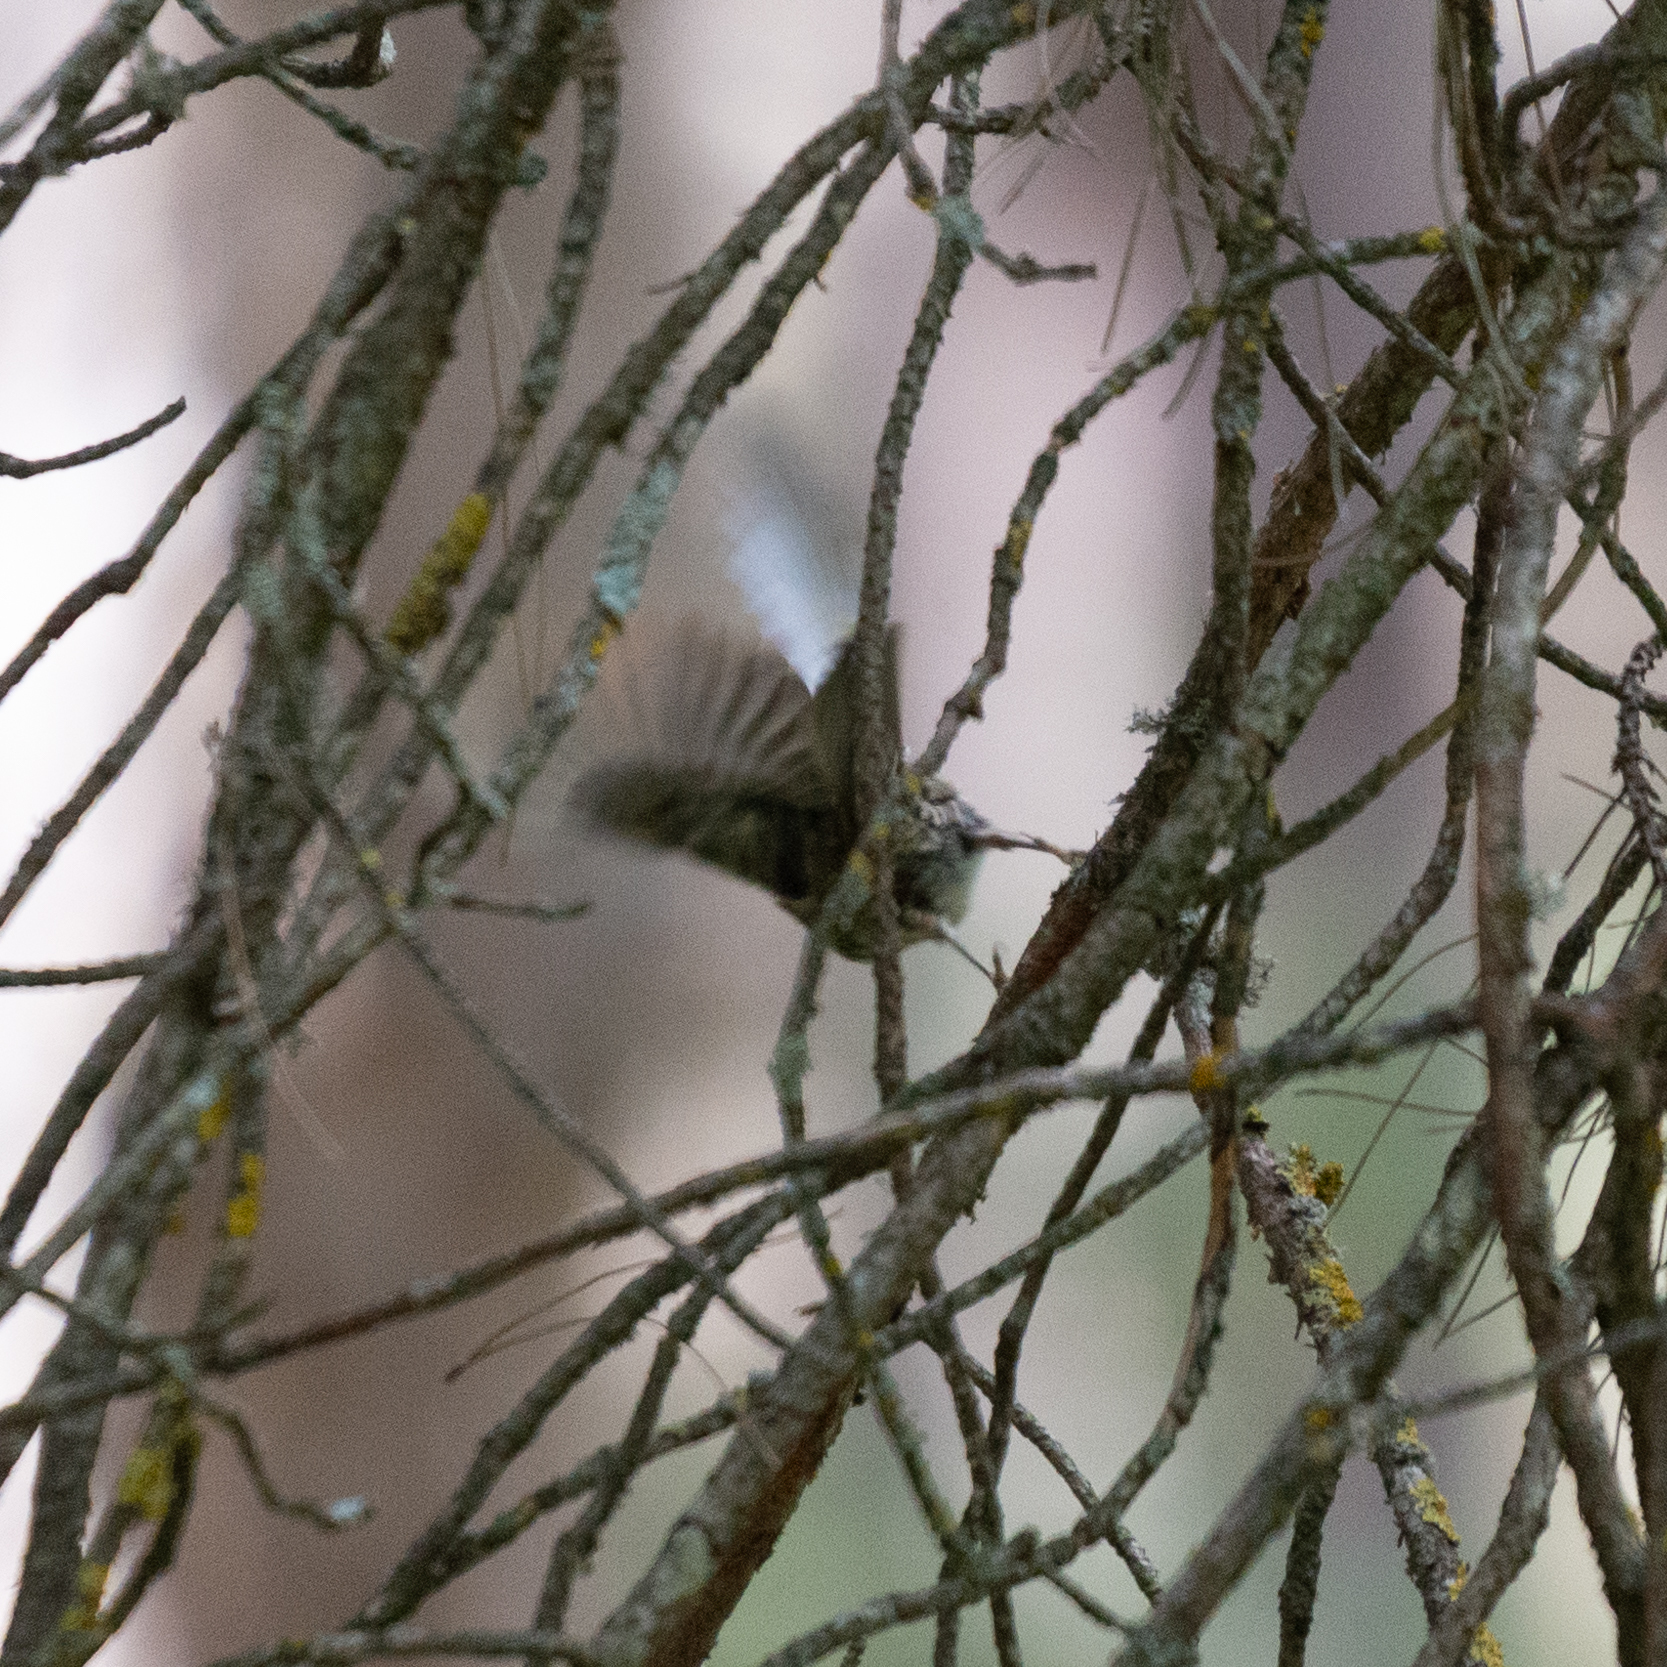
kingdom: Animalia
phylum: Chordata
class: Aves
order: Passeriformes
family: Muscicapidae
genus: Erithacus
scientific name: Erithacus rubecula
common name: European robin
